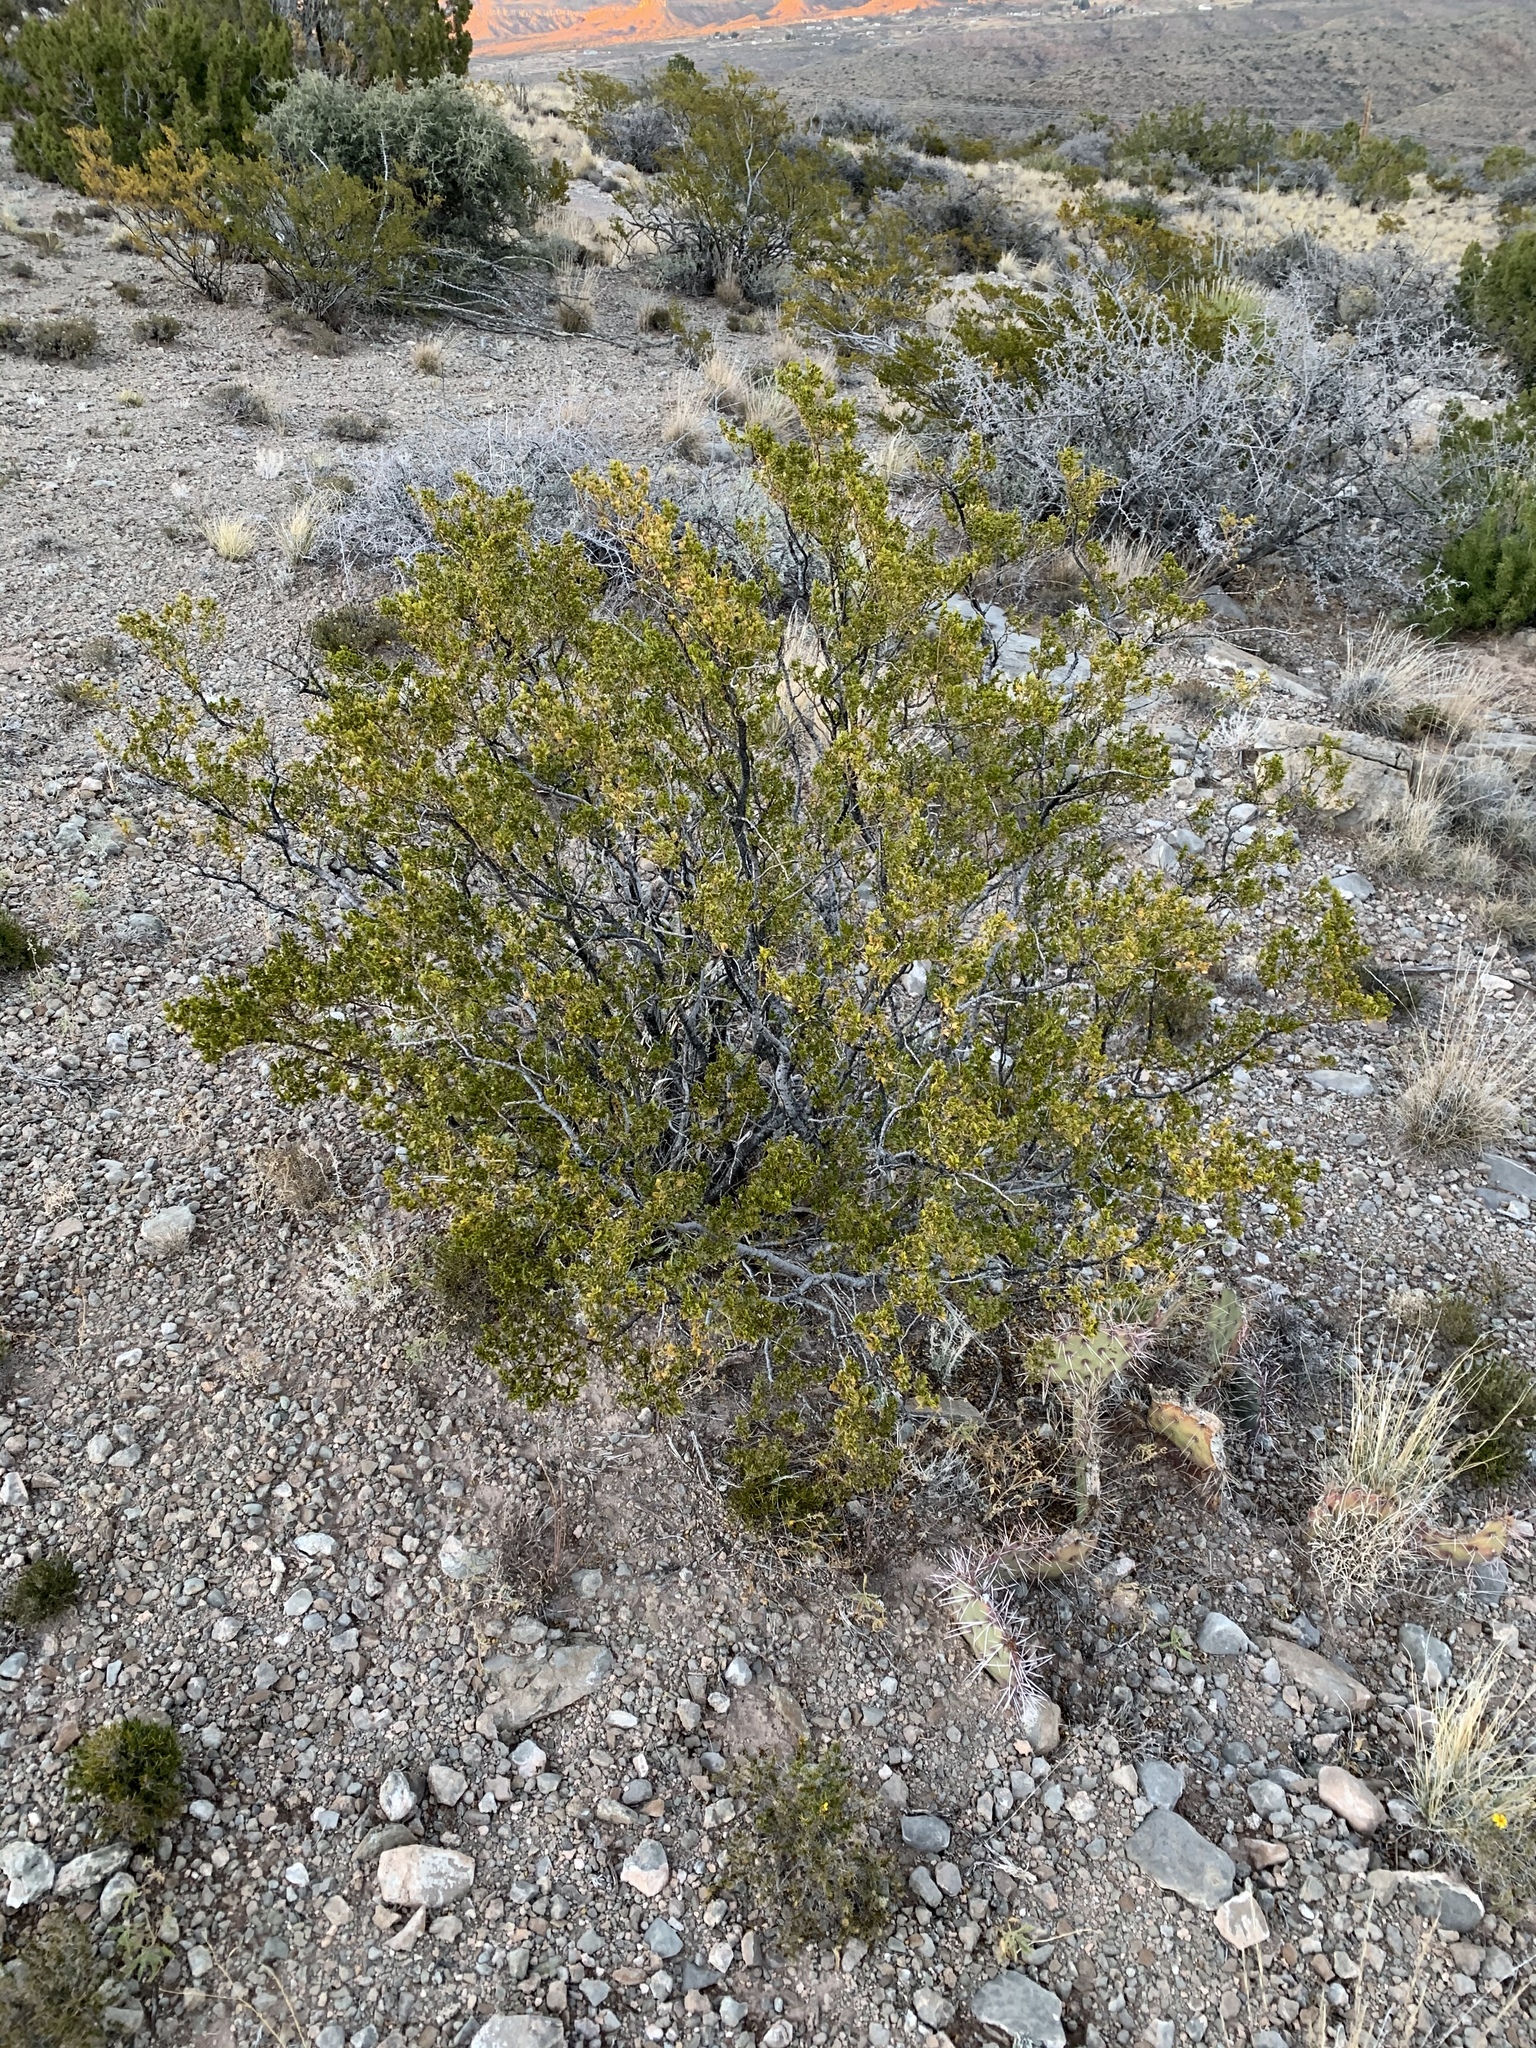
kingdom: Plantae
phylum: Tracheophyta
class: Magnoliopsida
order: Zygophyllales
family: Zygophyllaceae
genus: Larrea
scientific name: Larrea tridentata
